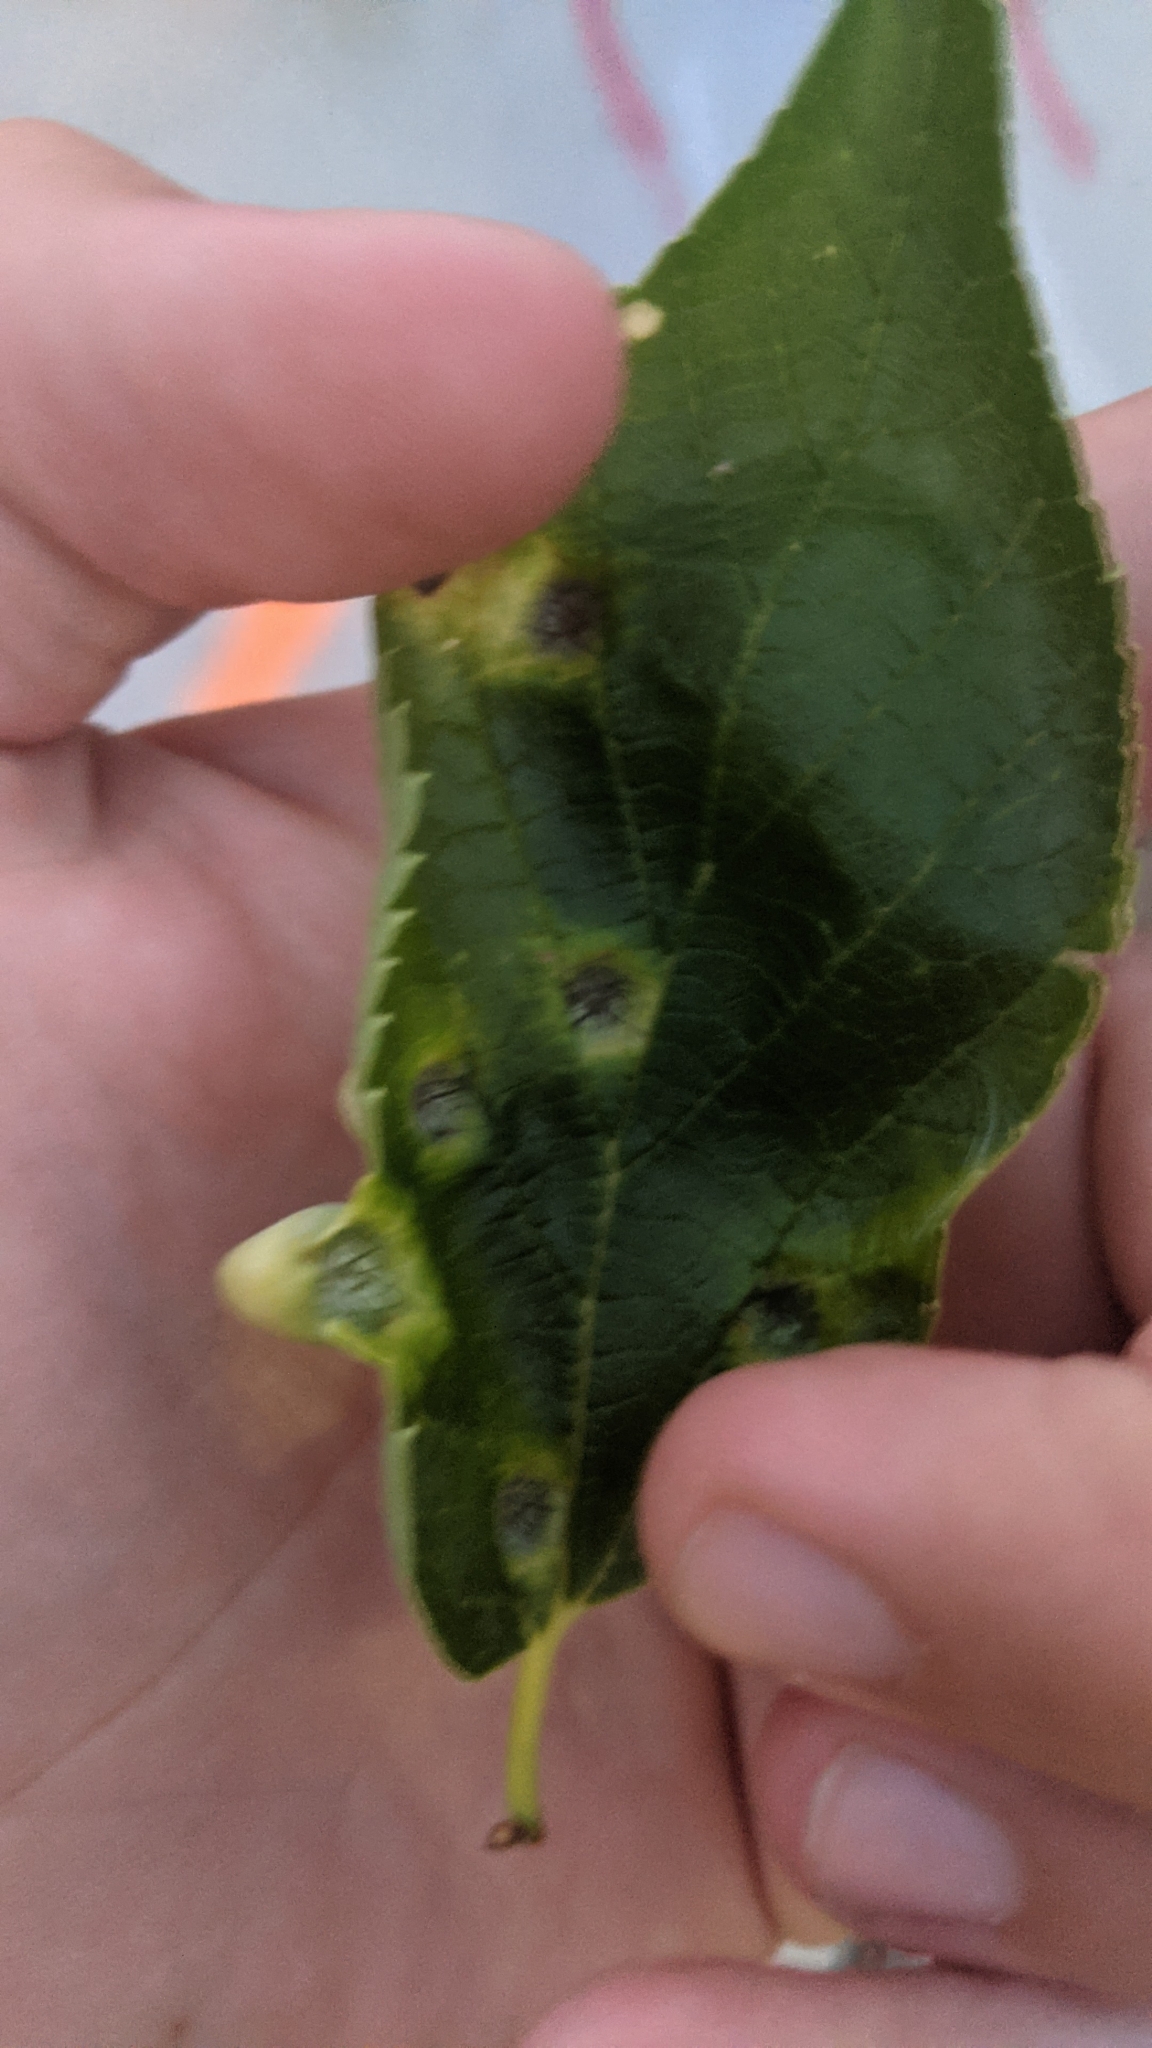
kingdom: Animalia
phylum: Arthropoda
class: Insecta
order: Hemiptera
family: Aphalaridae
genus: Pachypsylla
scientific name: Pachypsylla celtidismamma
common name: Hackberry nipplegall psyllid
